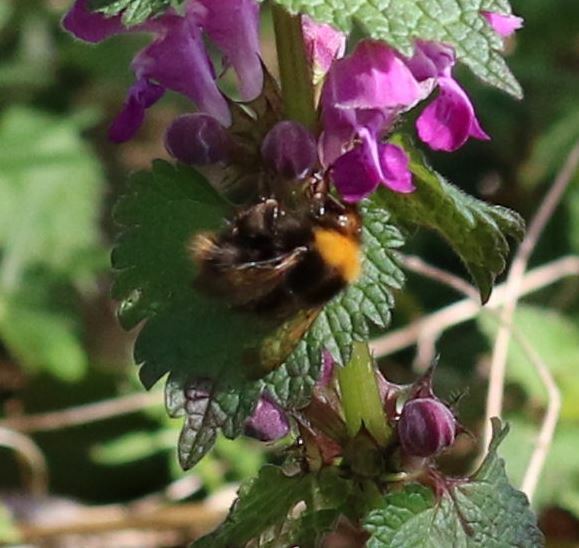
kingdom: Animalia
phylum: Arthropoda
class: Insecta
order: Hymenoptera
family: Apidae
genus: Bombus
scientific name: Bombus pratorum
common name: Early humble-bee
